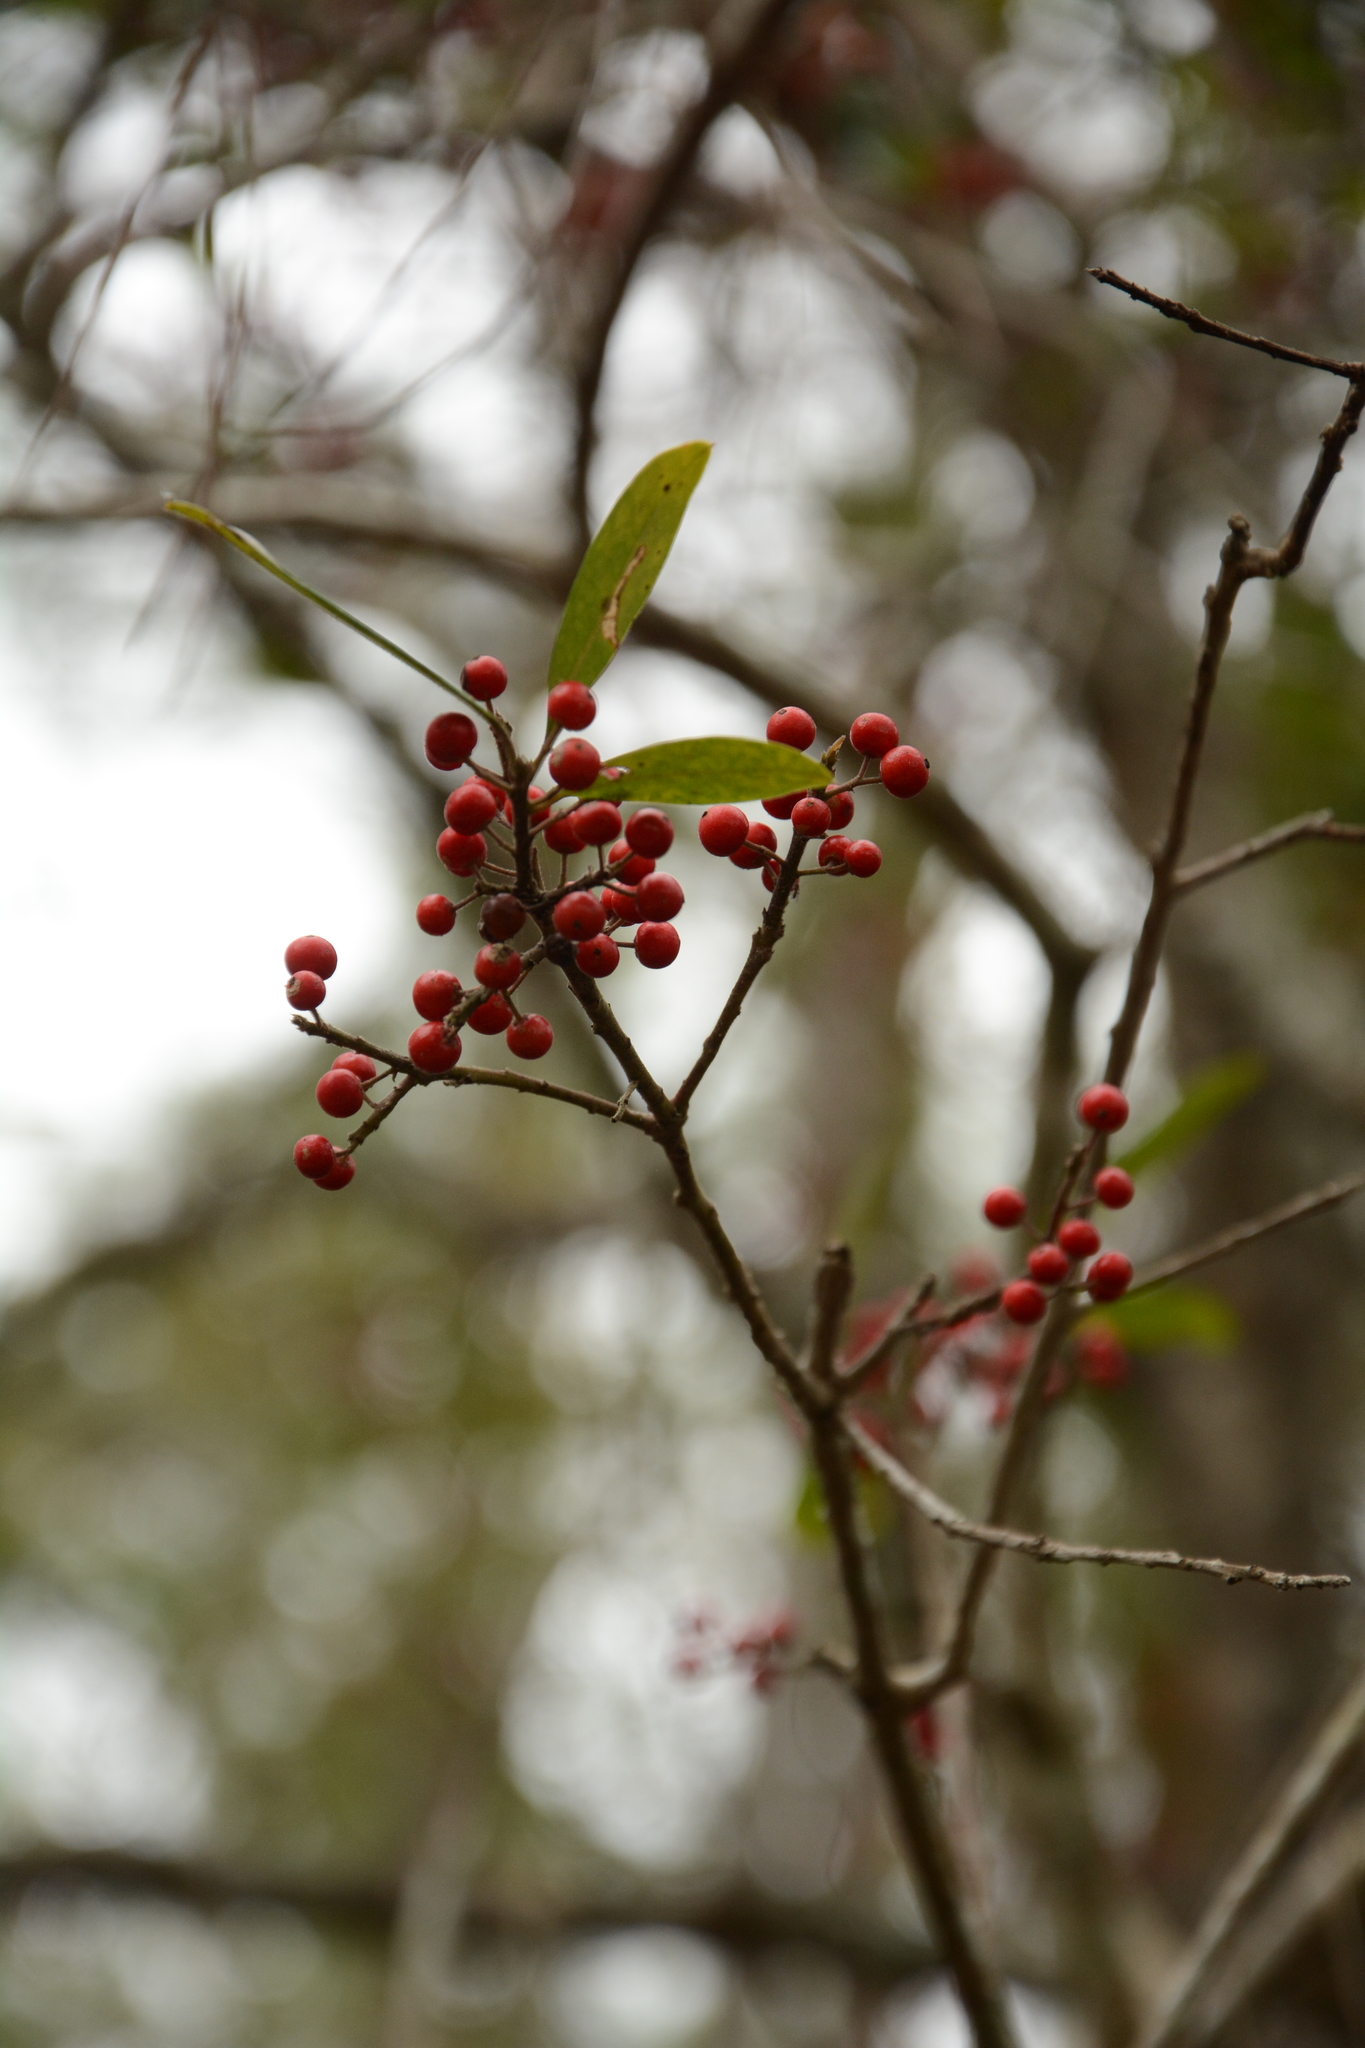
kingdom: Plantae
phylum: Tracheophyta
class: Magnoliopsida
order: Aquifoliales
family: Aquifoliaceae
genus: Ilex
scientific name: Ilex cassine
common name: Dahoon
